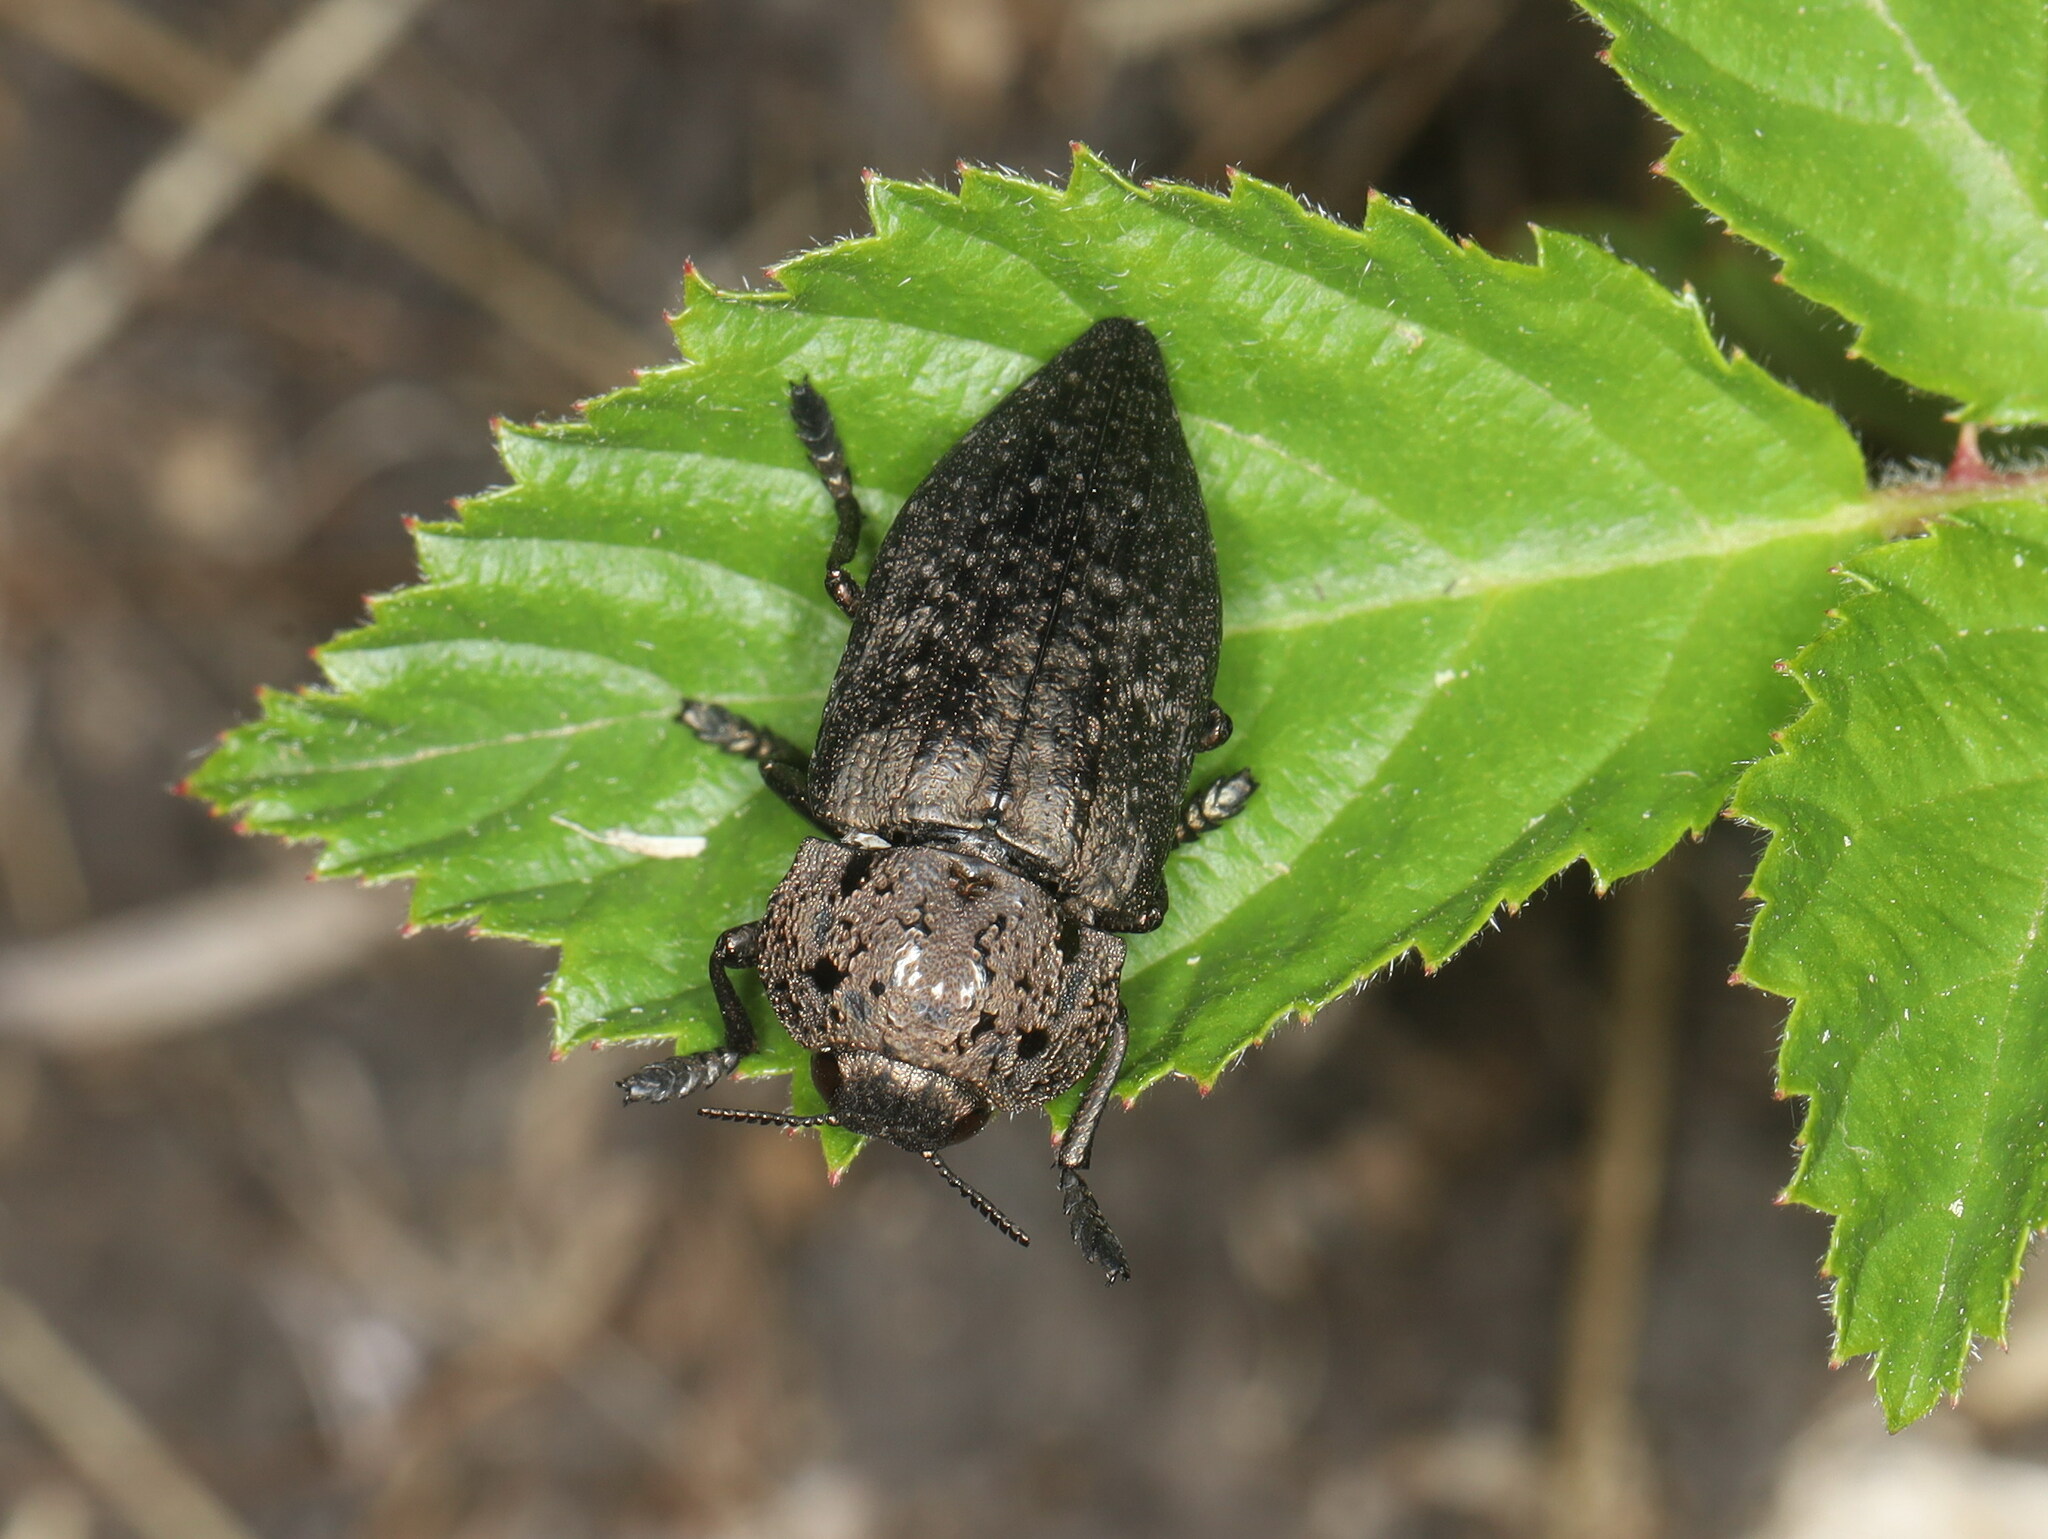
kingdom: Animalia
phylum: Arthropoda
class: Insecta
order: Coleoptera
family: Buprestidae
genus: Capnodis
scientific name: Capnodis tenebricosa
